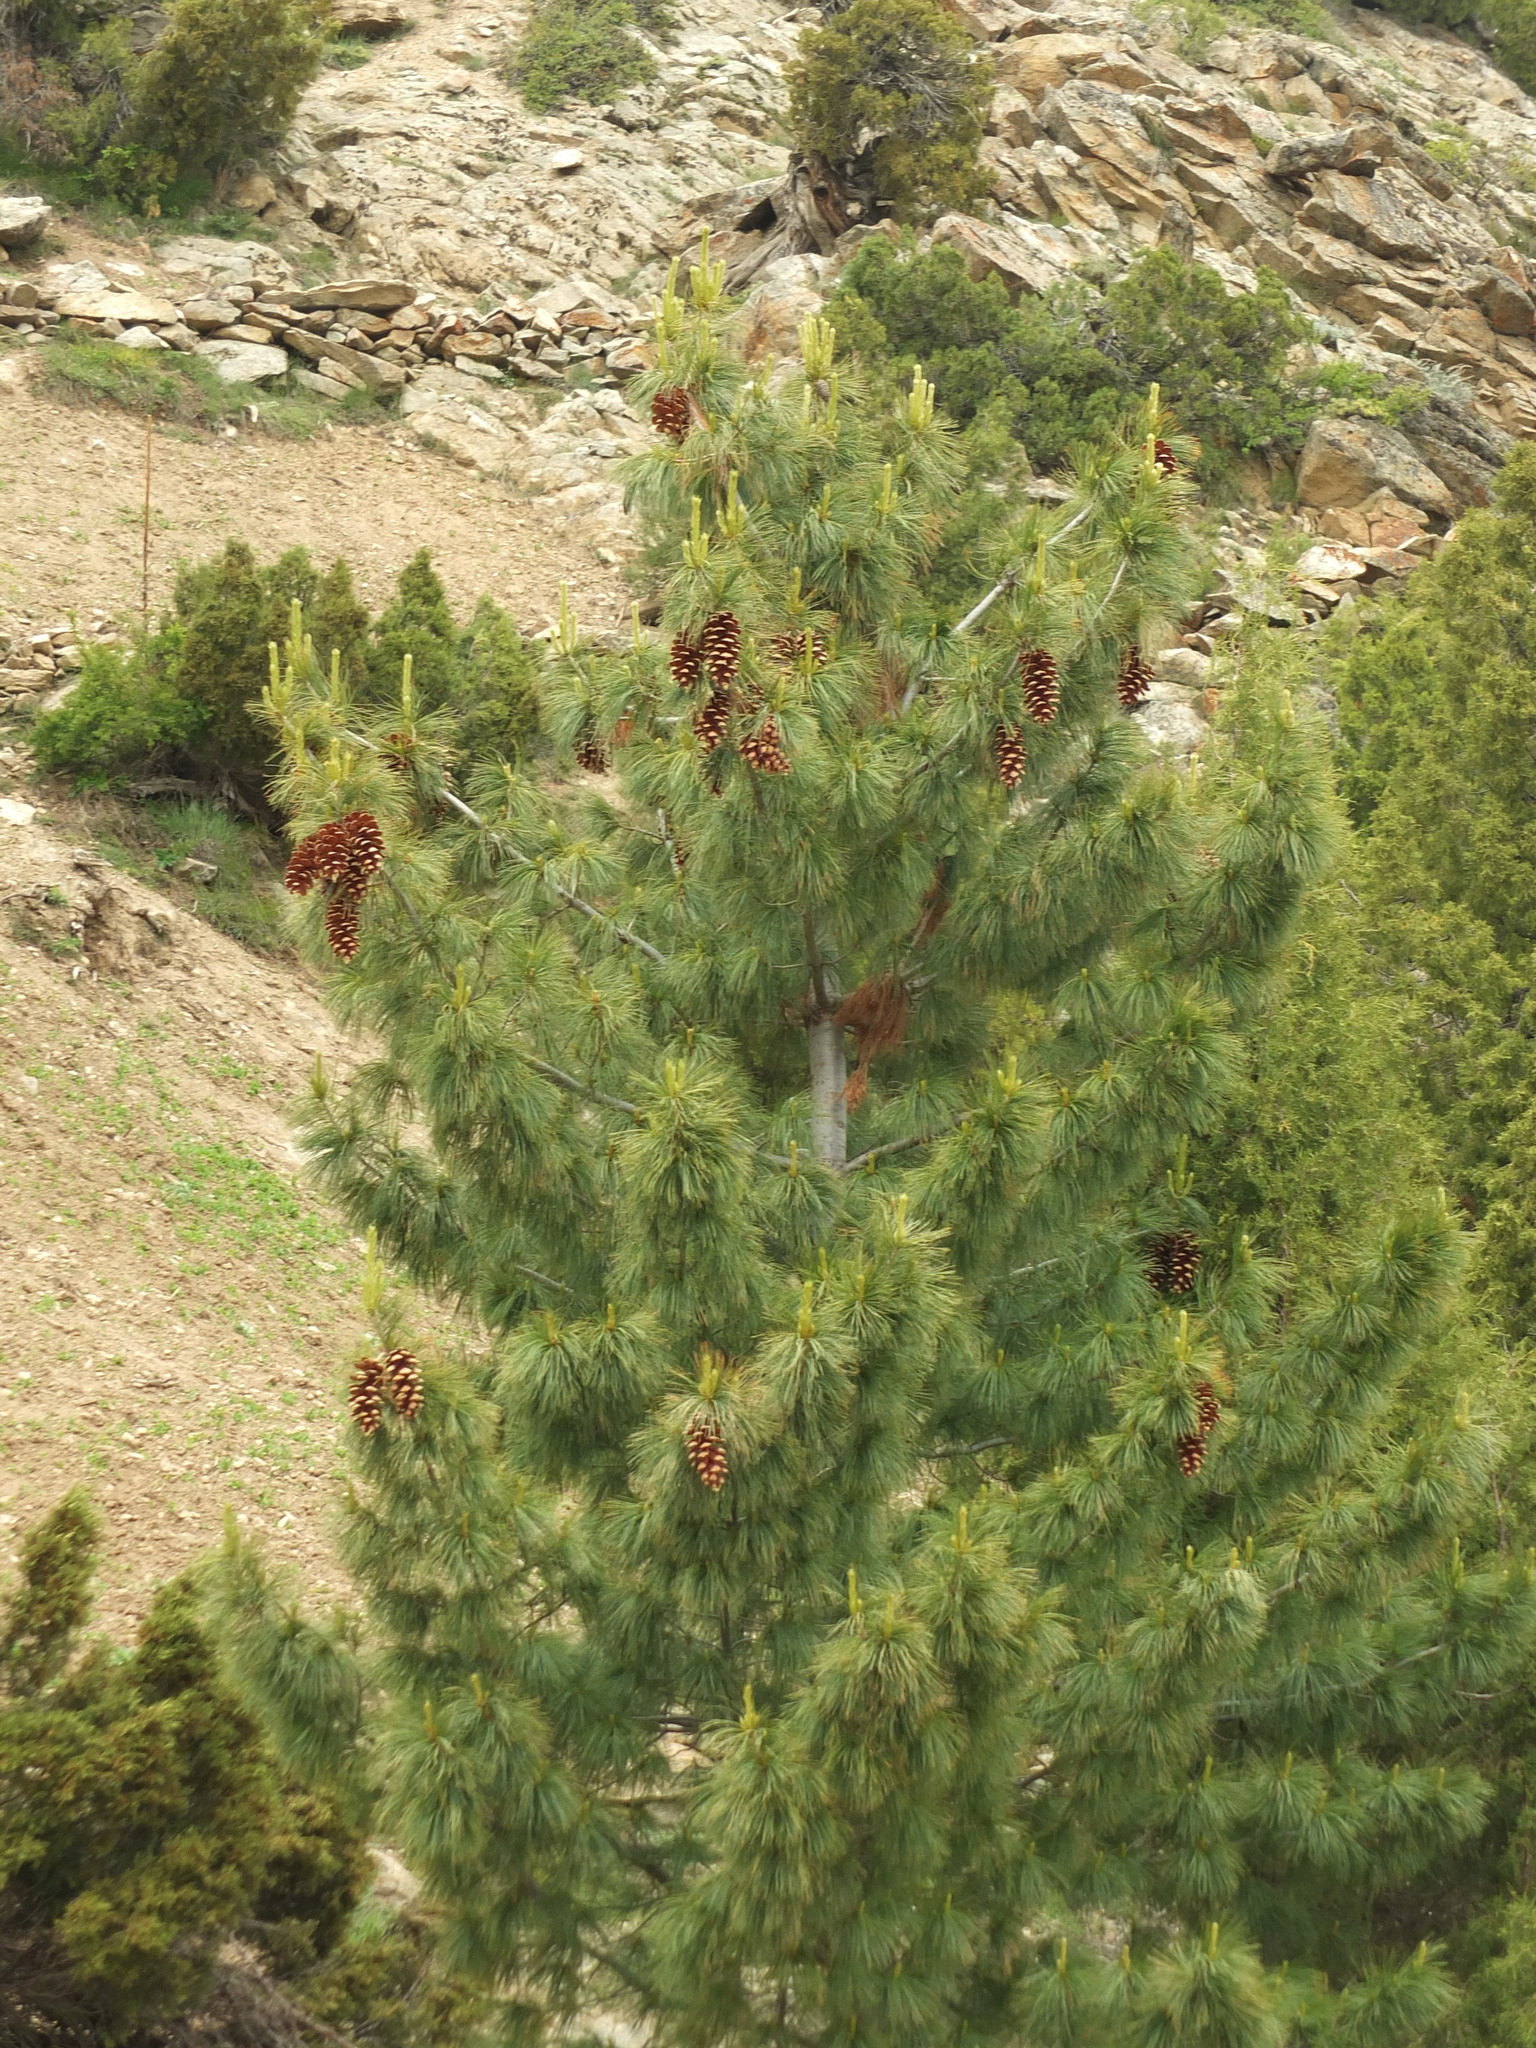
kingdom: Plantae
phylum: Tracheophyta
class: Pinopsida
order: Pinales
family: Pinaceae
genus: Pinus
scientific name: Pinus wallichiana
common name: Bhutan pine
